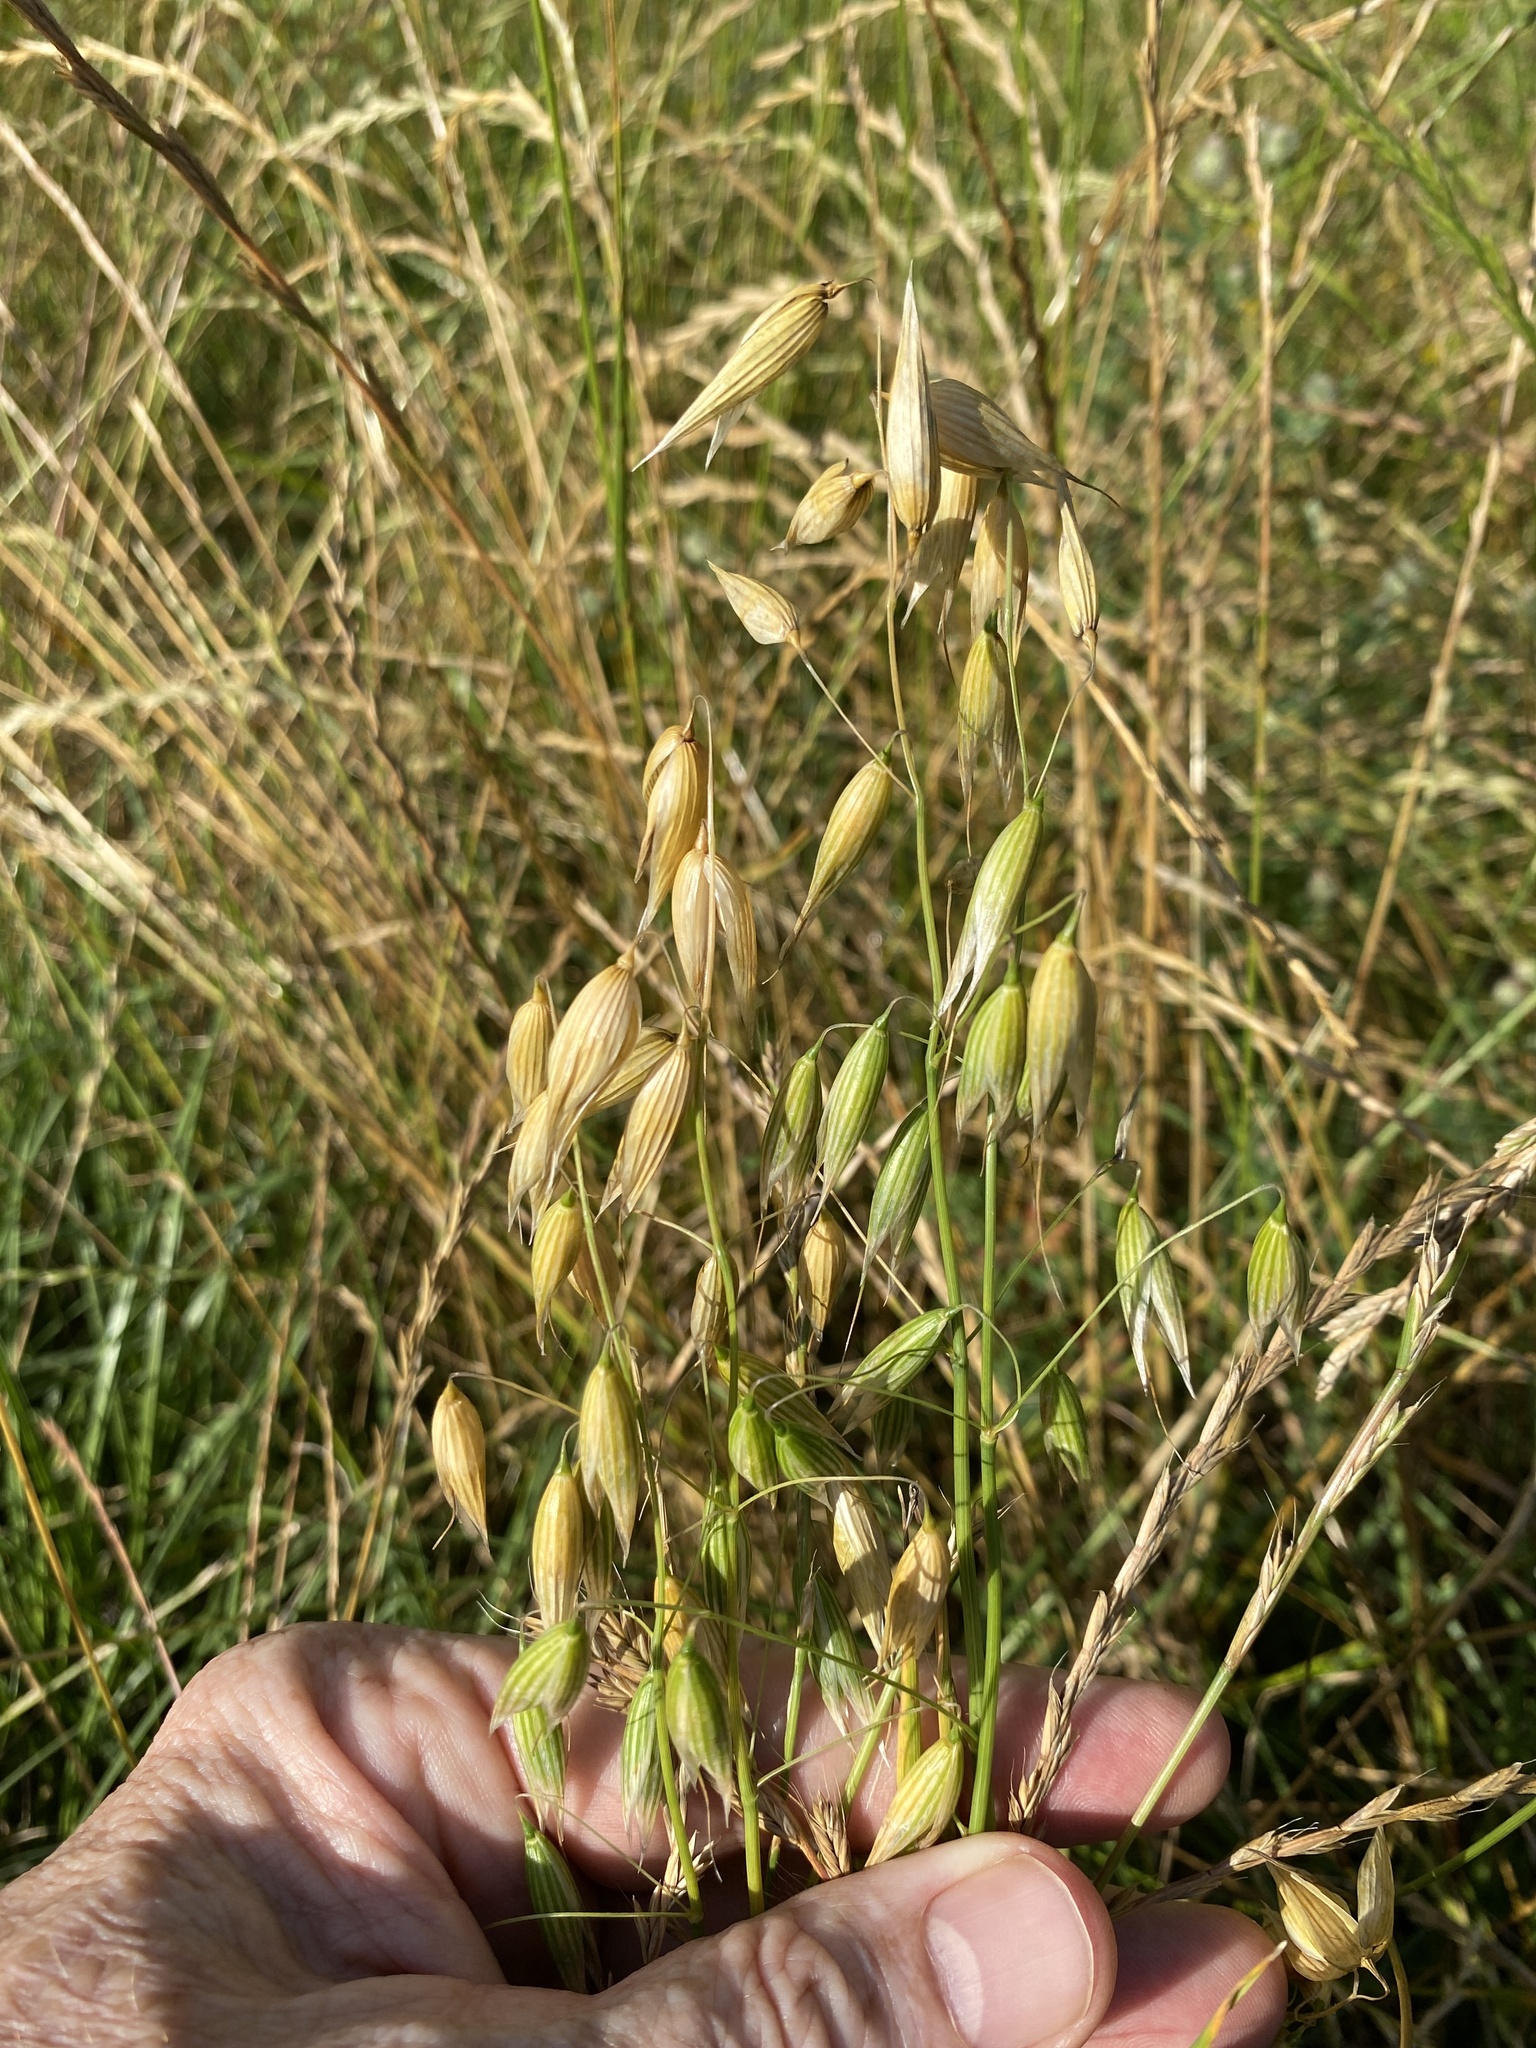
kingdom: Plantae
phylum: Tracheophyta
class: Liliopsida
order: Poales
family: Poaceae
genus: Avena
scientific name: Avena sativa
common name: Oat
